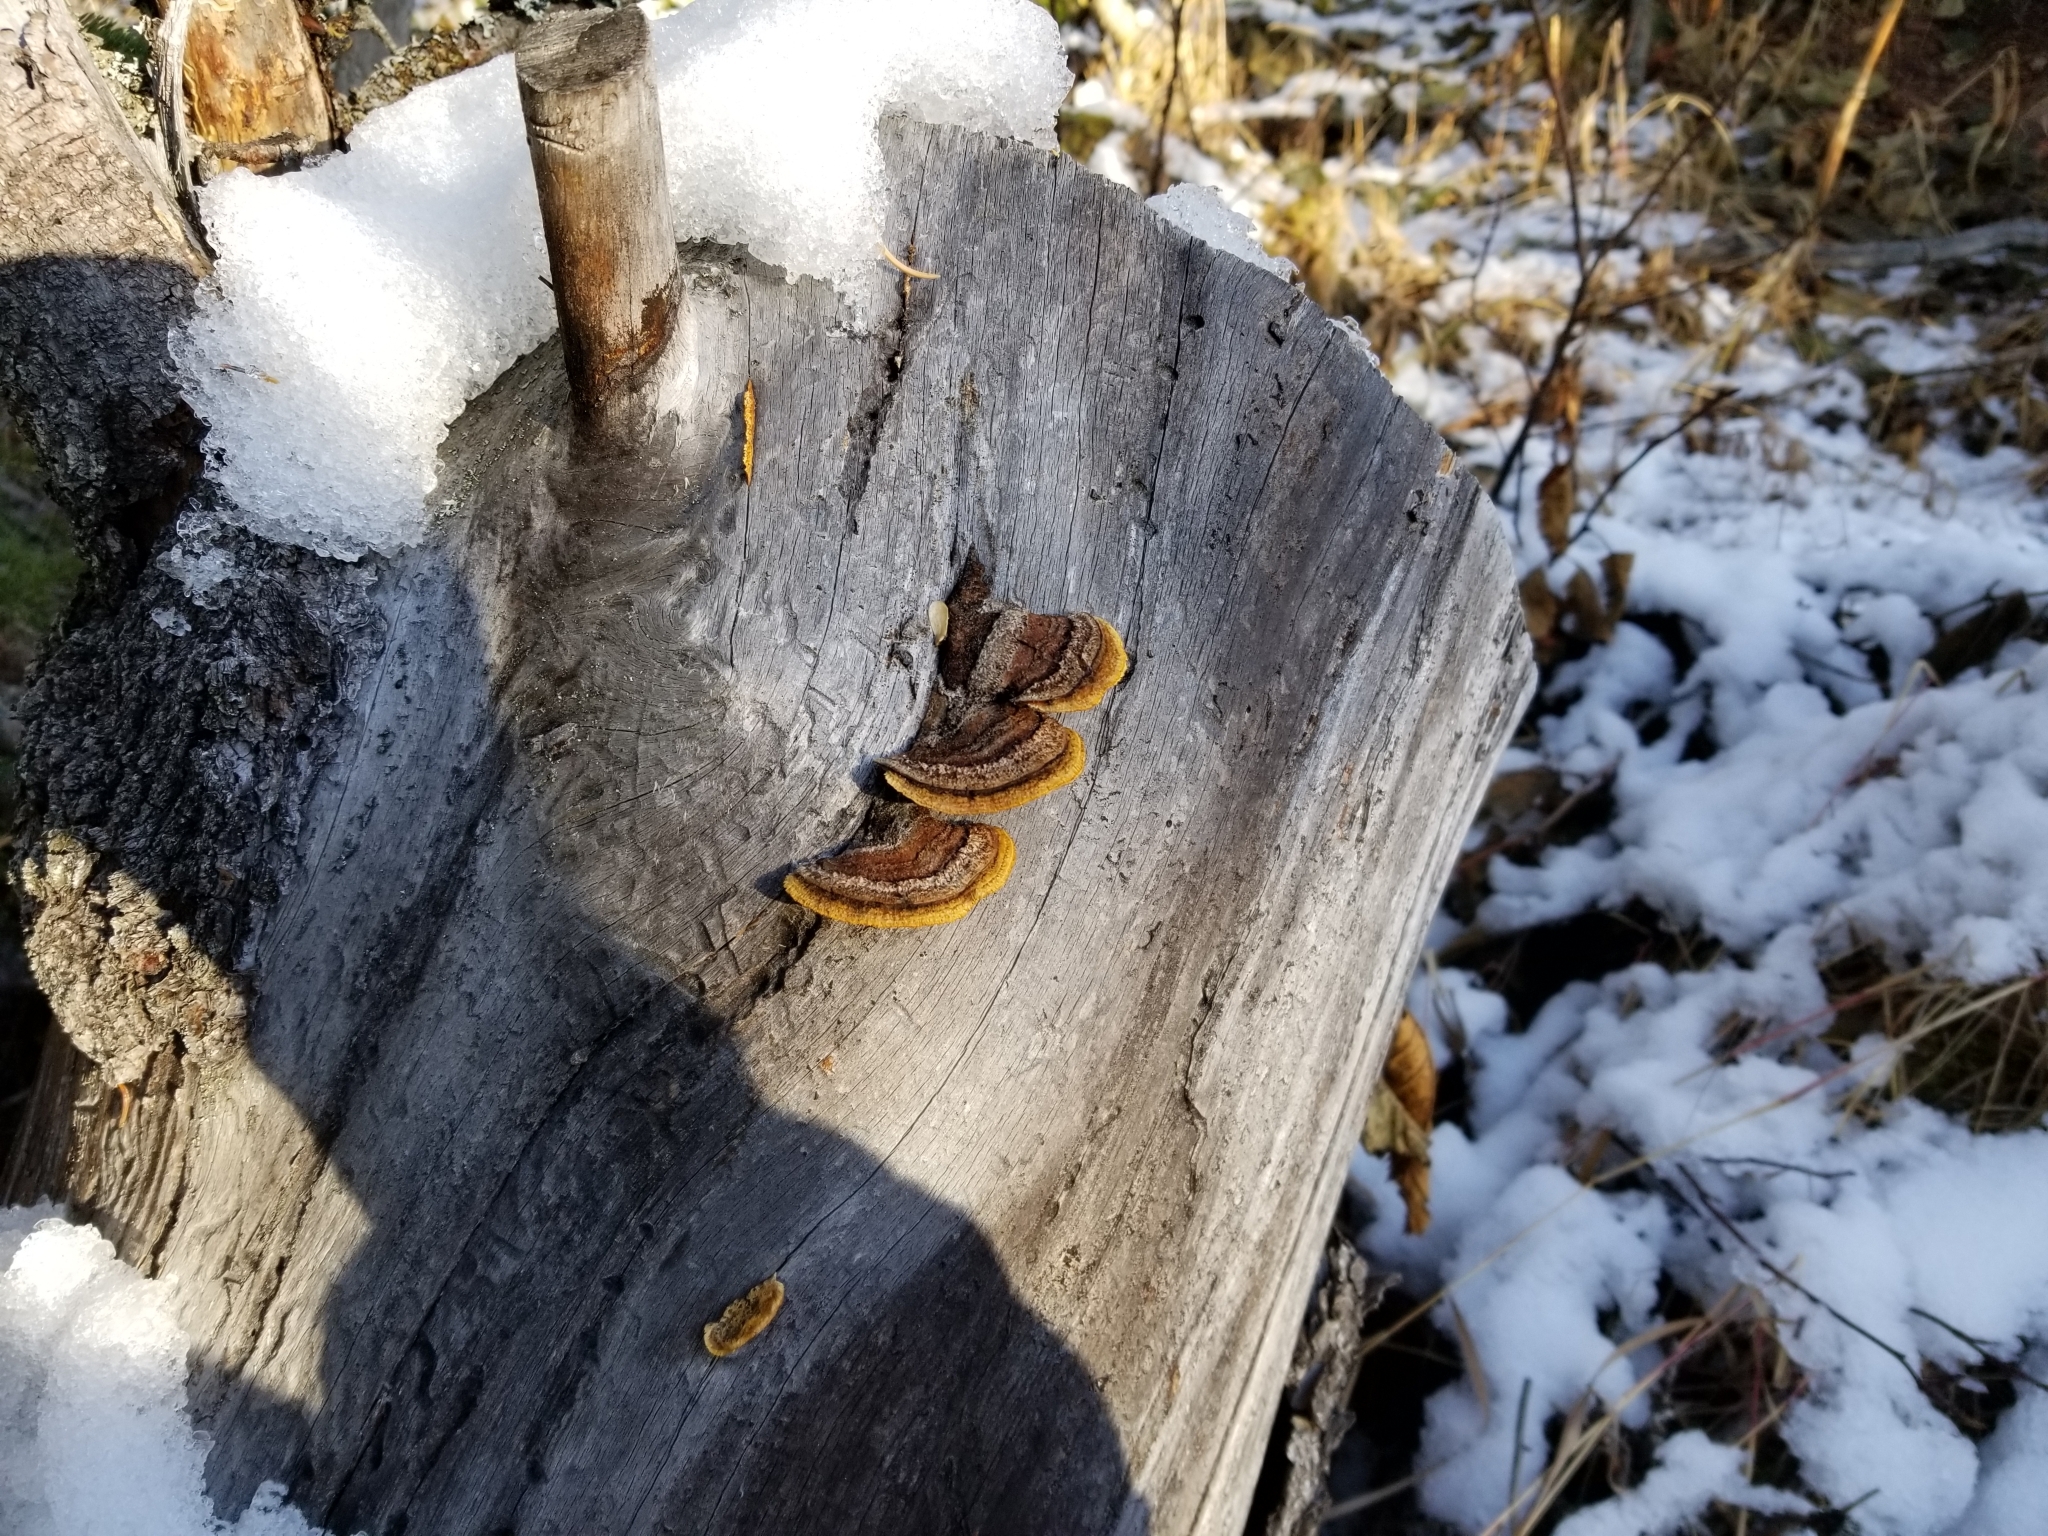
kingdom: Fungi
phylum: Basidiomycota
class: Agaricomycetes
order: Gloeophyllales
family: Gloeophyllaceae
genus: Gloeophyllum
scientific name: Gloeophyllum sepiarium
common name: Conifer mazegill
